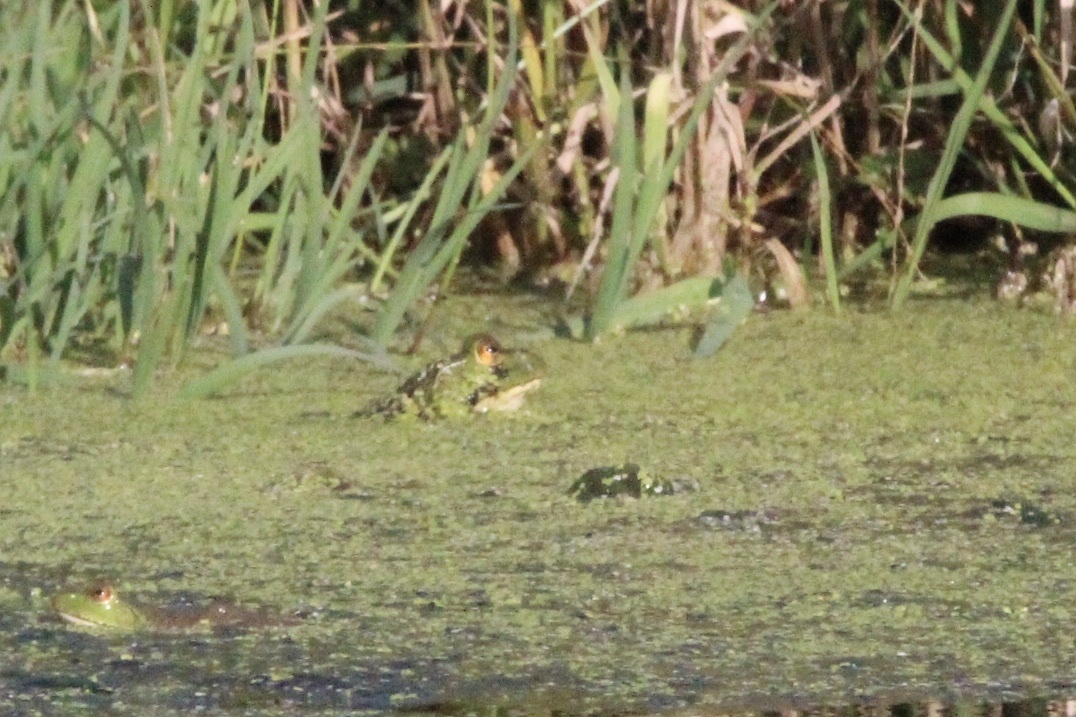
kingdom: Animalia
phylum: Chordata
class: Amphibia
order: Anura
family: Ranidae
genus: Lithobates
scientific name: Lithobates catesbeianus
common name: American bullfrog
